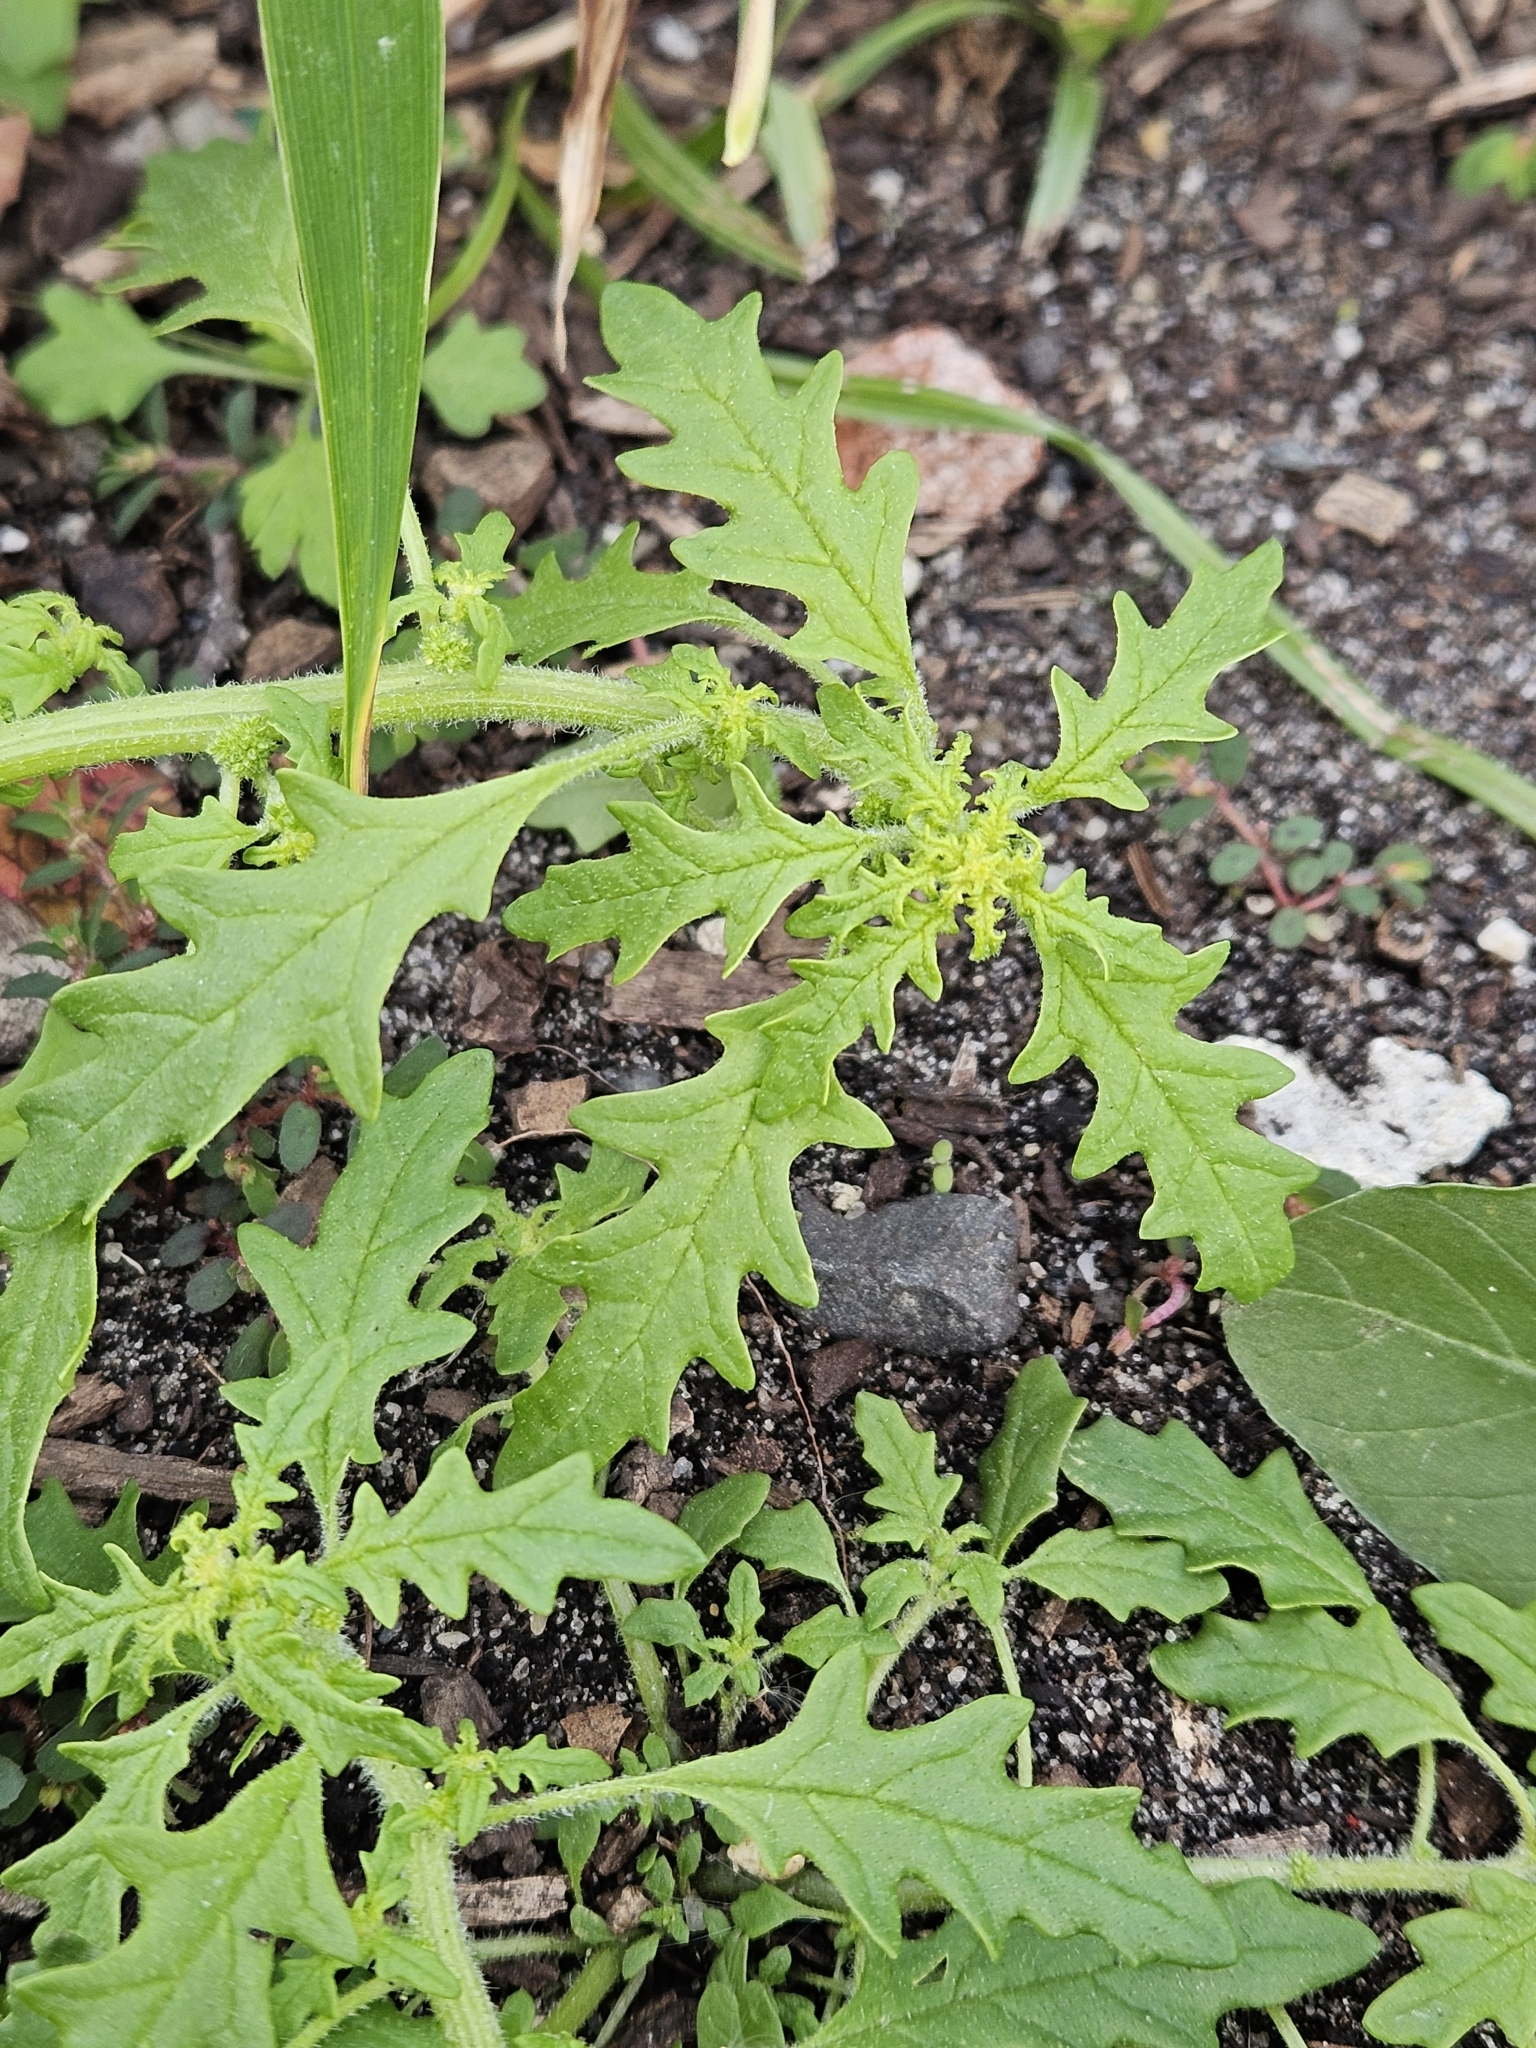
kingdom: Plantae
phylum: Tracheophyta
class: Magnoliopsida
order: Caryophyllales
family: Amaranthaceae
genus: Dysphania
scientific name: Dysphania pumilio
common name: Clammy goosefoot
